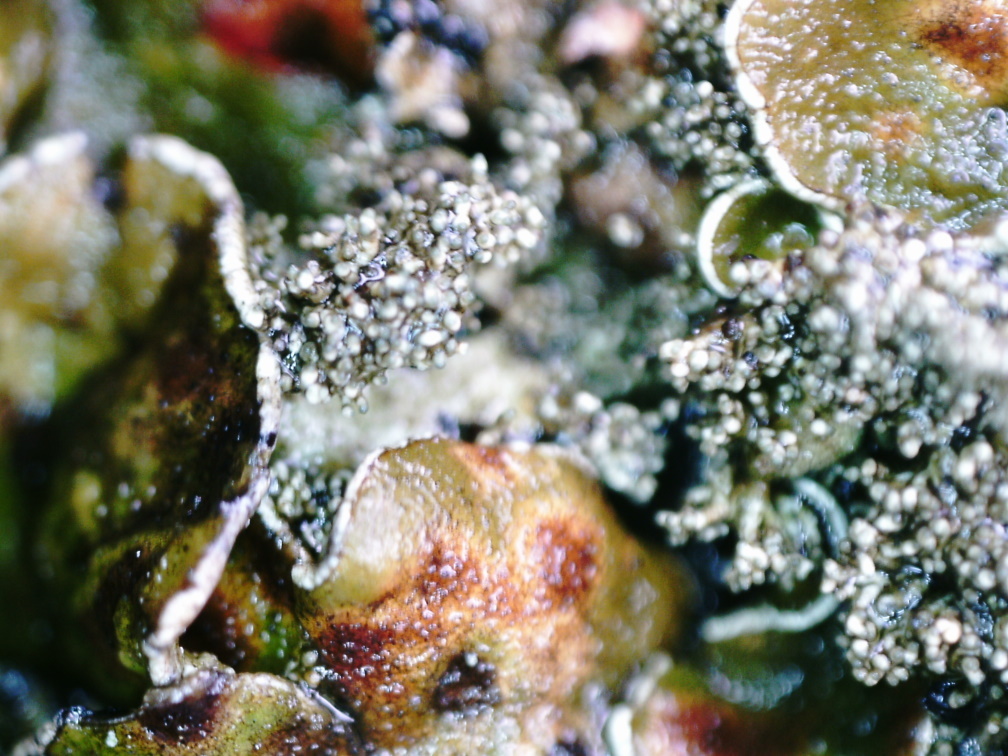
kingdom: Fungi
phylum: Ascomycota
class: Lecanoromycetes
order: Lecanorales
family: Parmeliaceae
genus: Xanthoparmelia
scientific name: Xanthoparmelia conspersa
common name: Peppered rock shield
